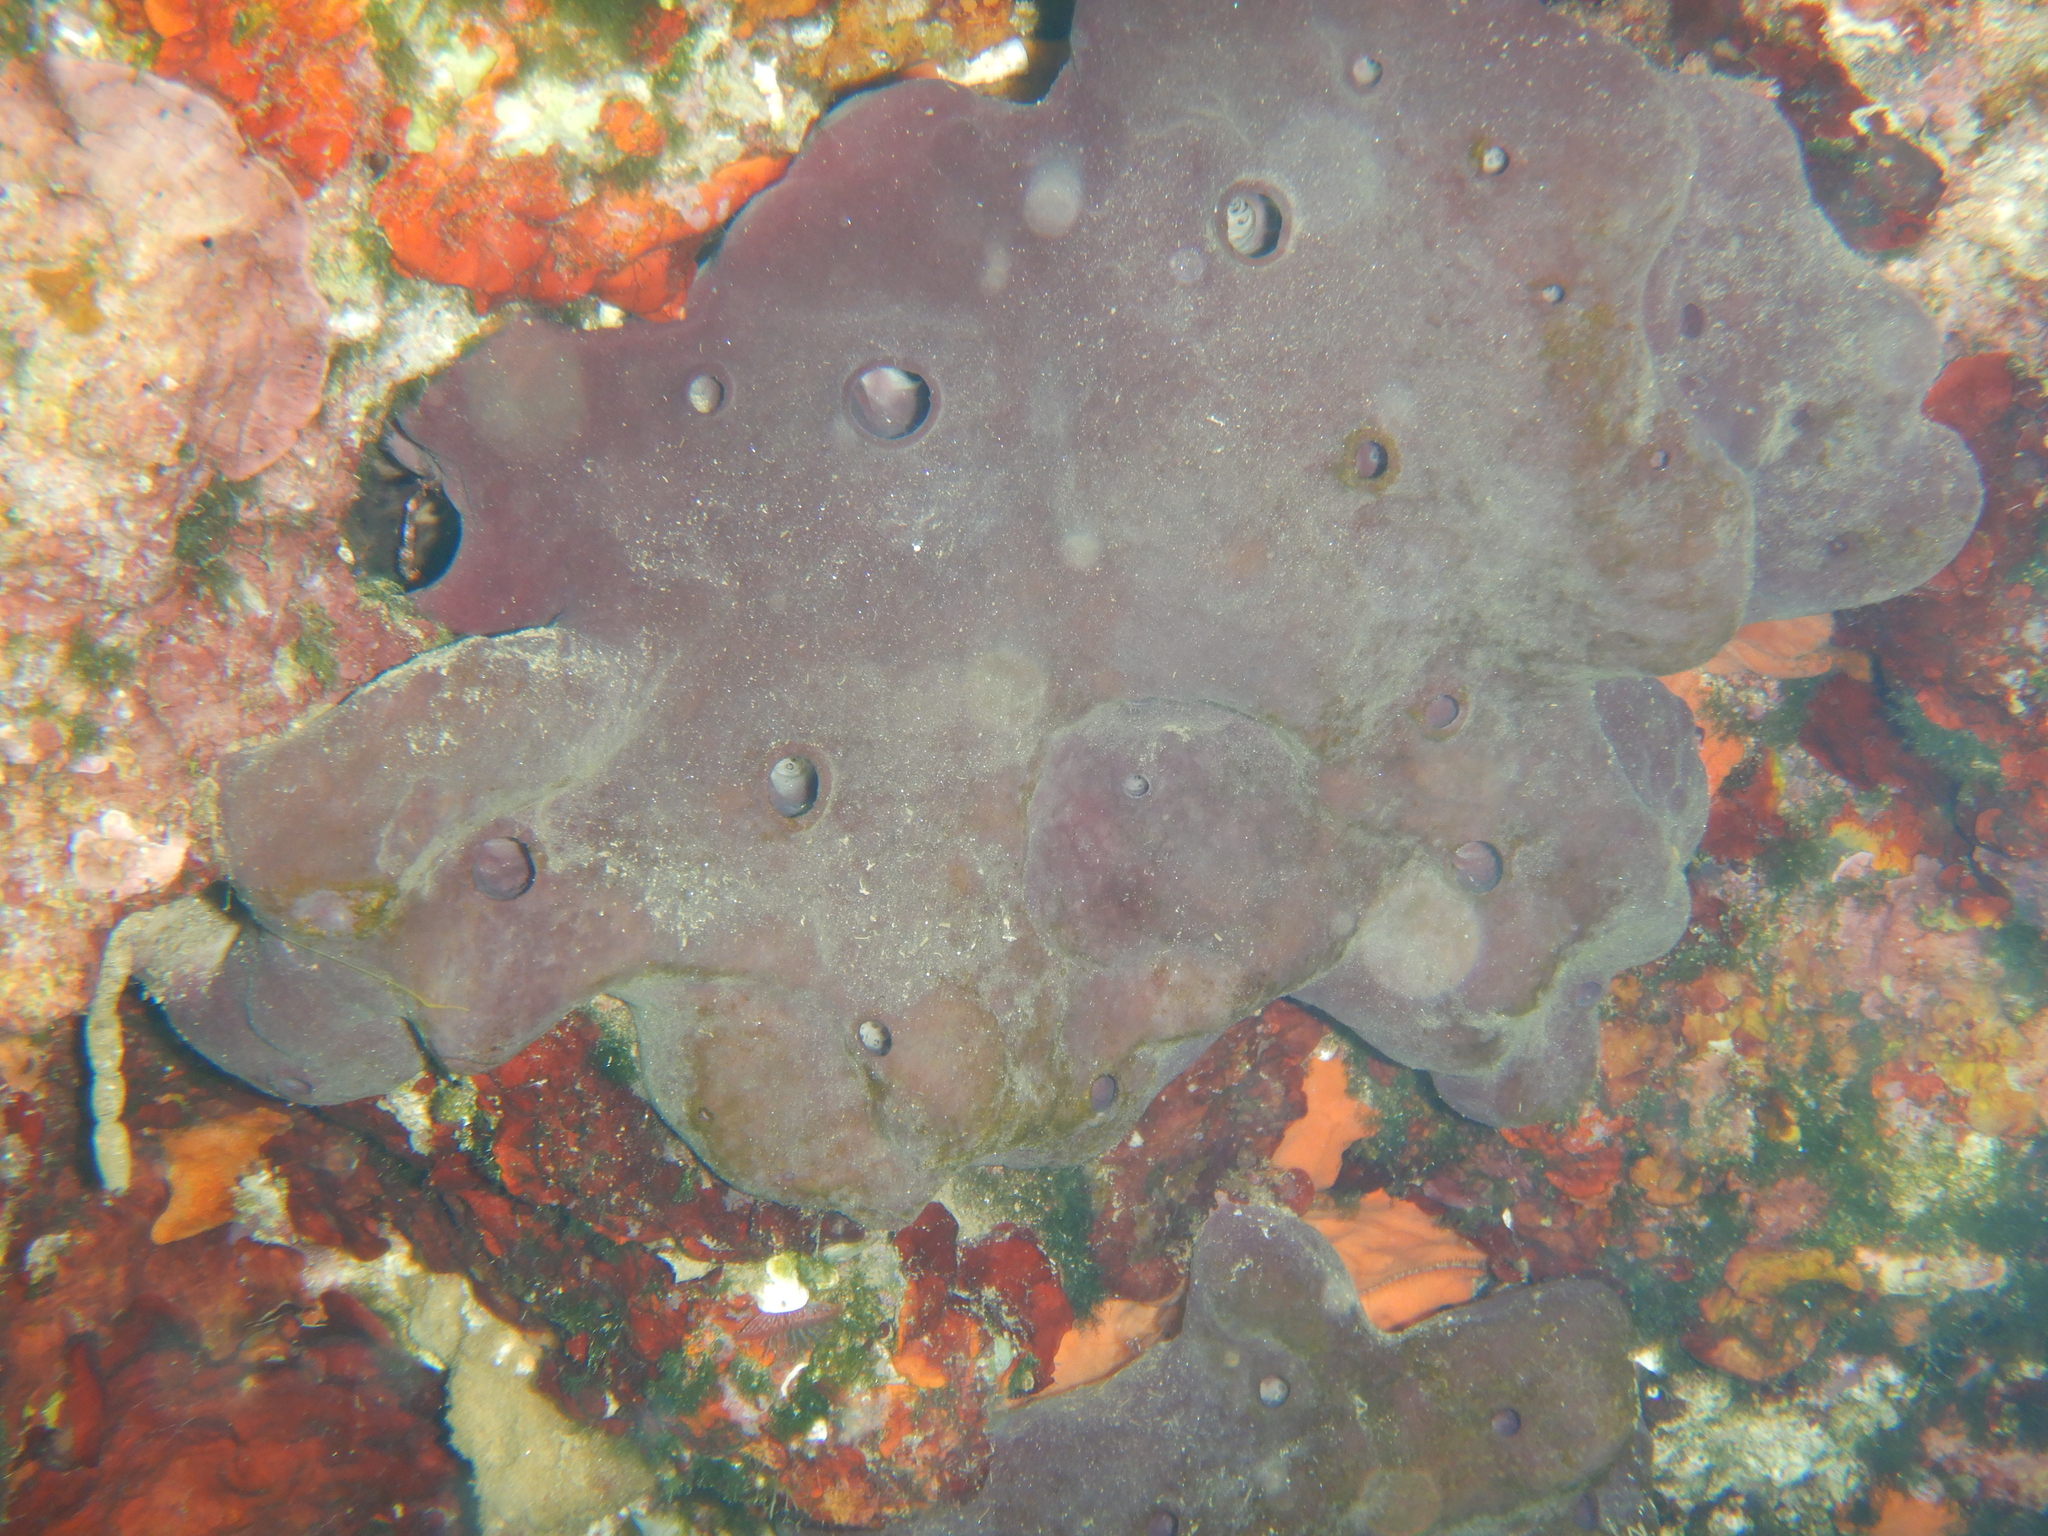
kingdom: Animalia
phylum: Porifera
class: Demospongiae
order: Haplosclerida
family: Petrosiidae
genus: Petrosia
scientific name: Petrosia ficiformis
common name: Stony sponge
